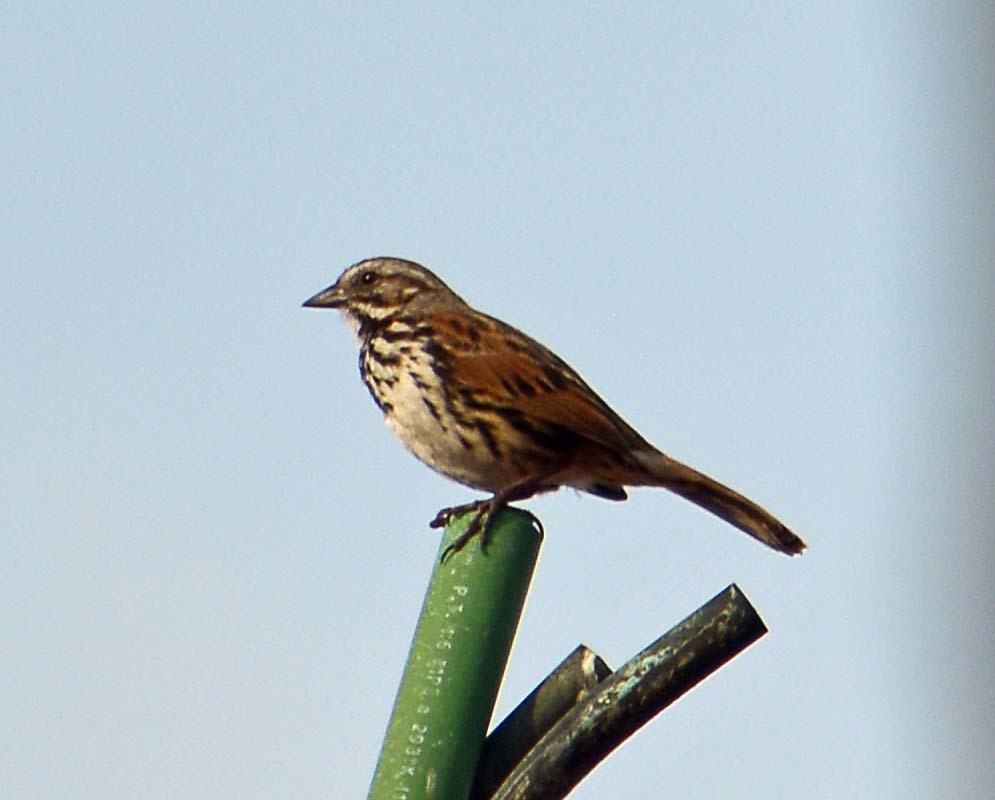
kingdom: Animalia
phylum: Chordata
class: Aves
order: Passeriformes
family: Passerellidae
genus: Melospiza
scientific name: Melospiza melodia
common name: Song sparrow
